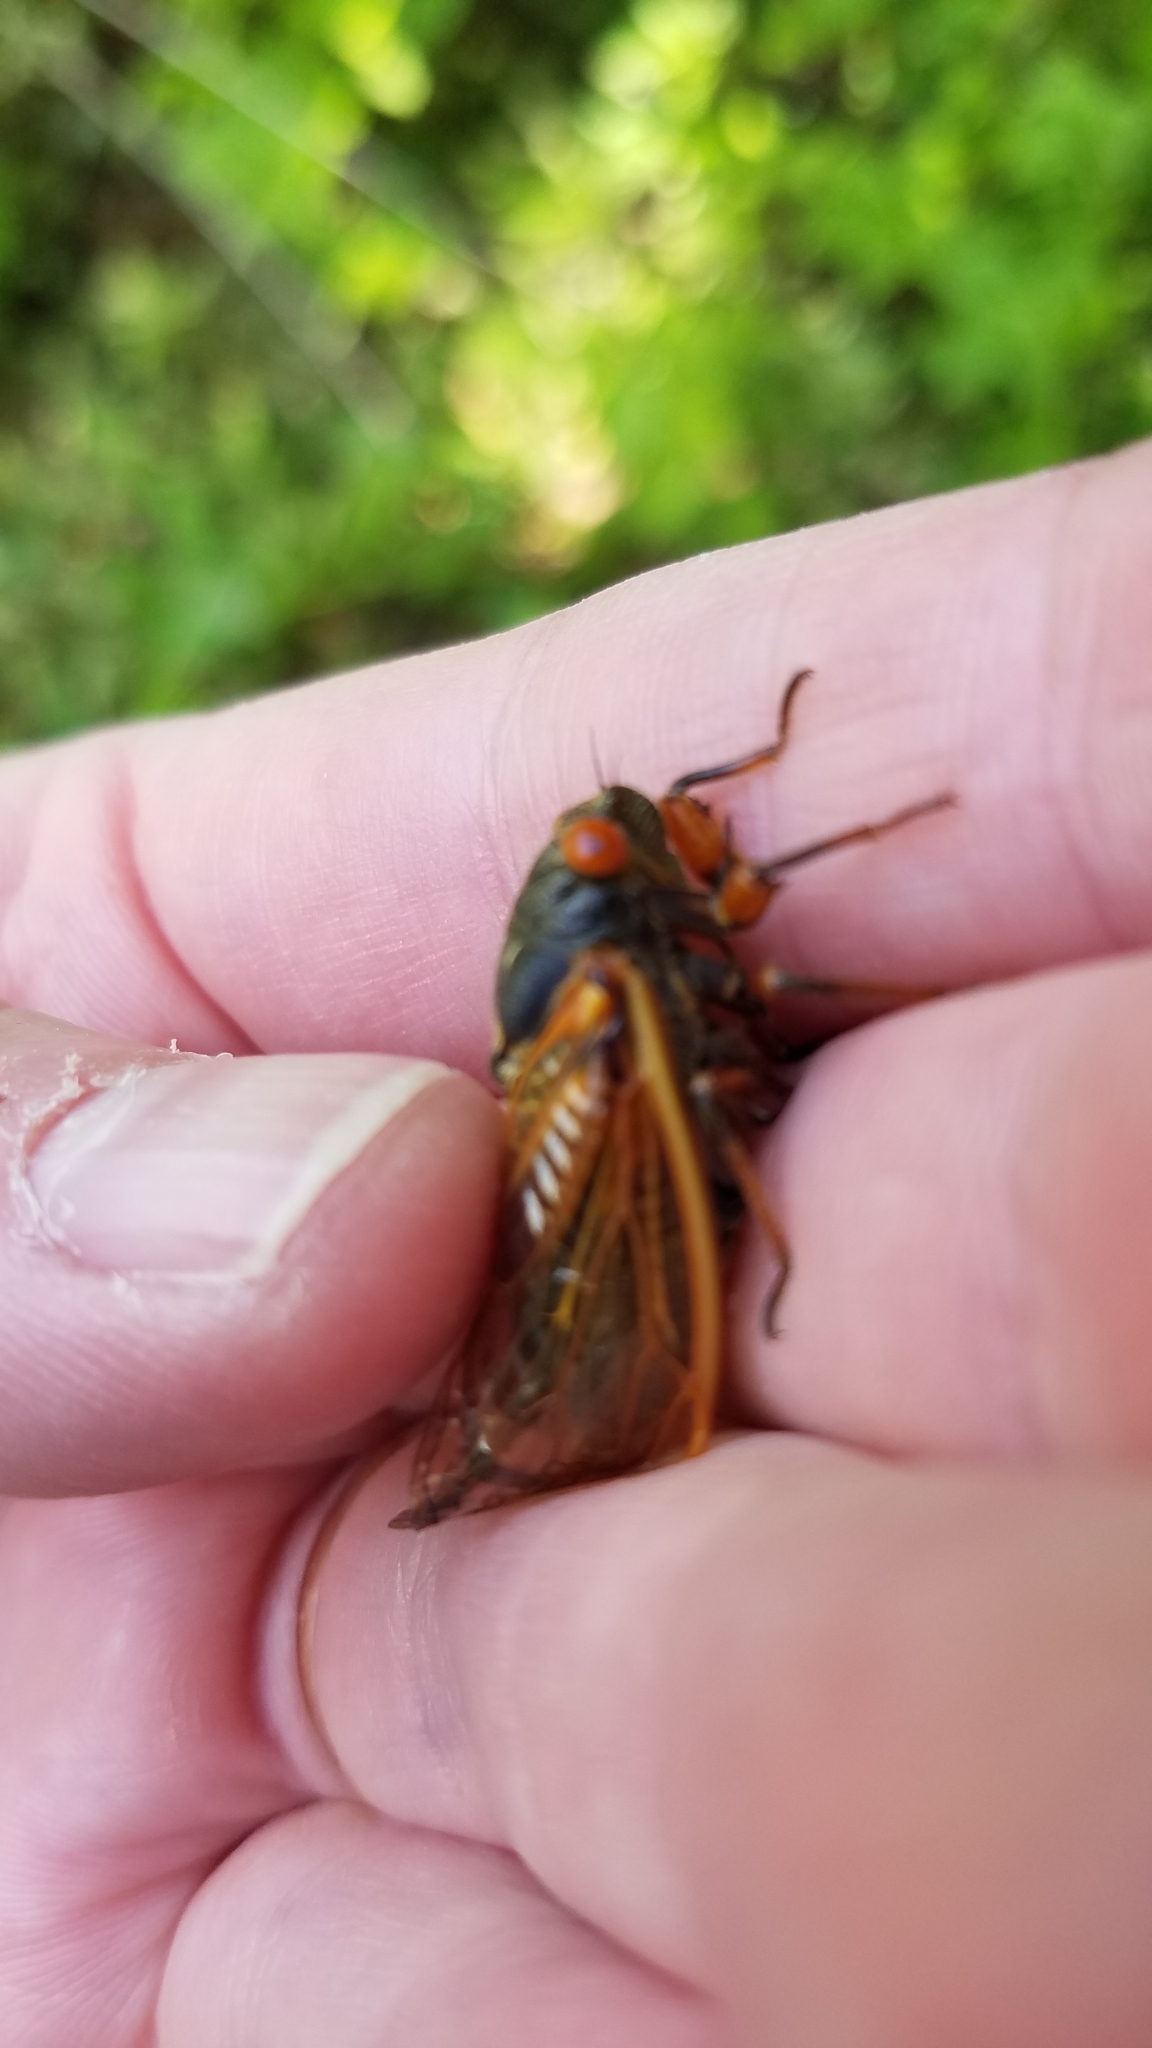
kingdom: Animalia
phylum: Arthropoda
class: Insecta
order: Hemiptera
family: Cicadidae
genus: Magicicada
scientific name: Magicicada cassini
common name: Cassin's 17-year cicada
